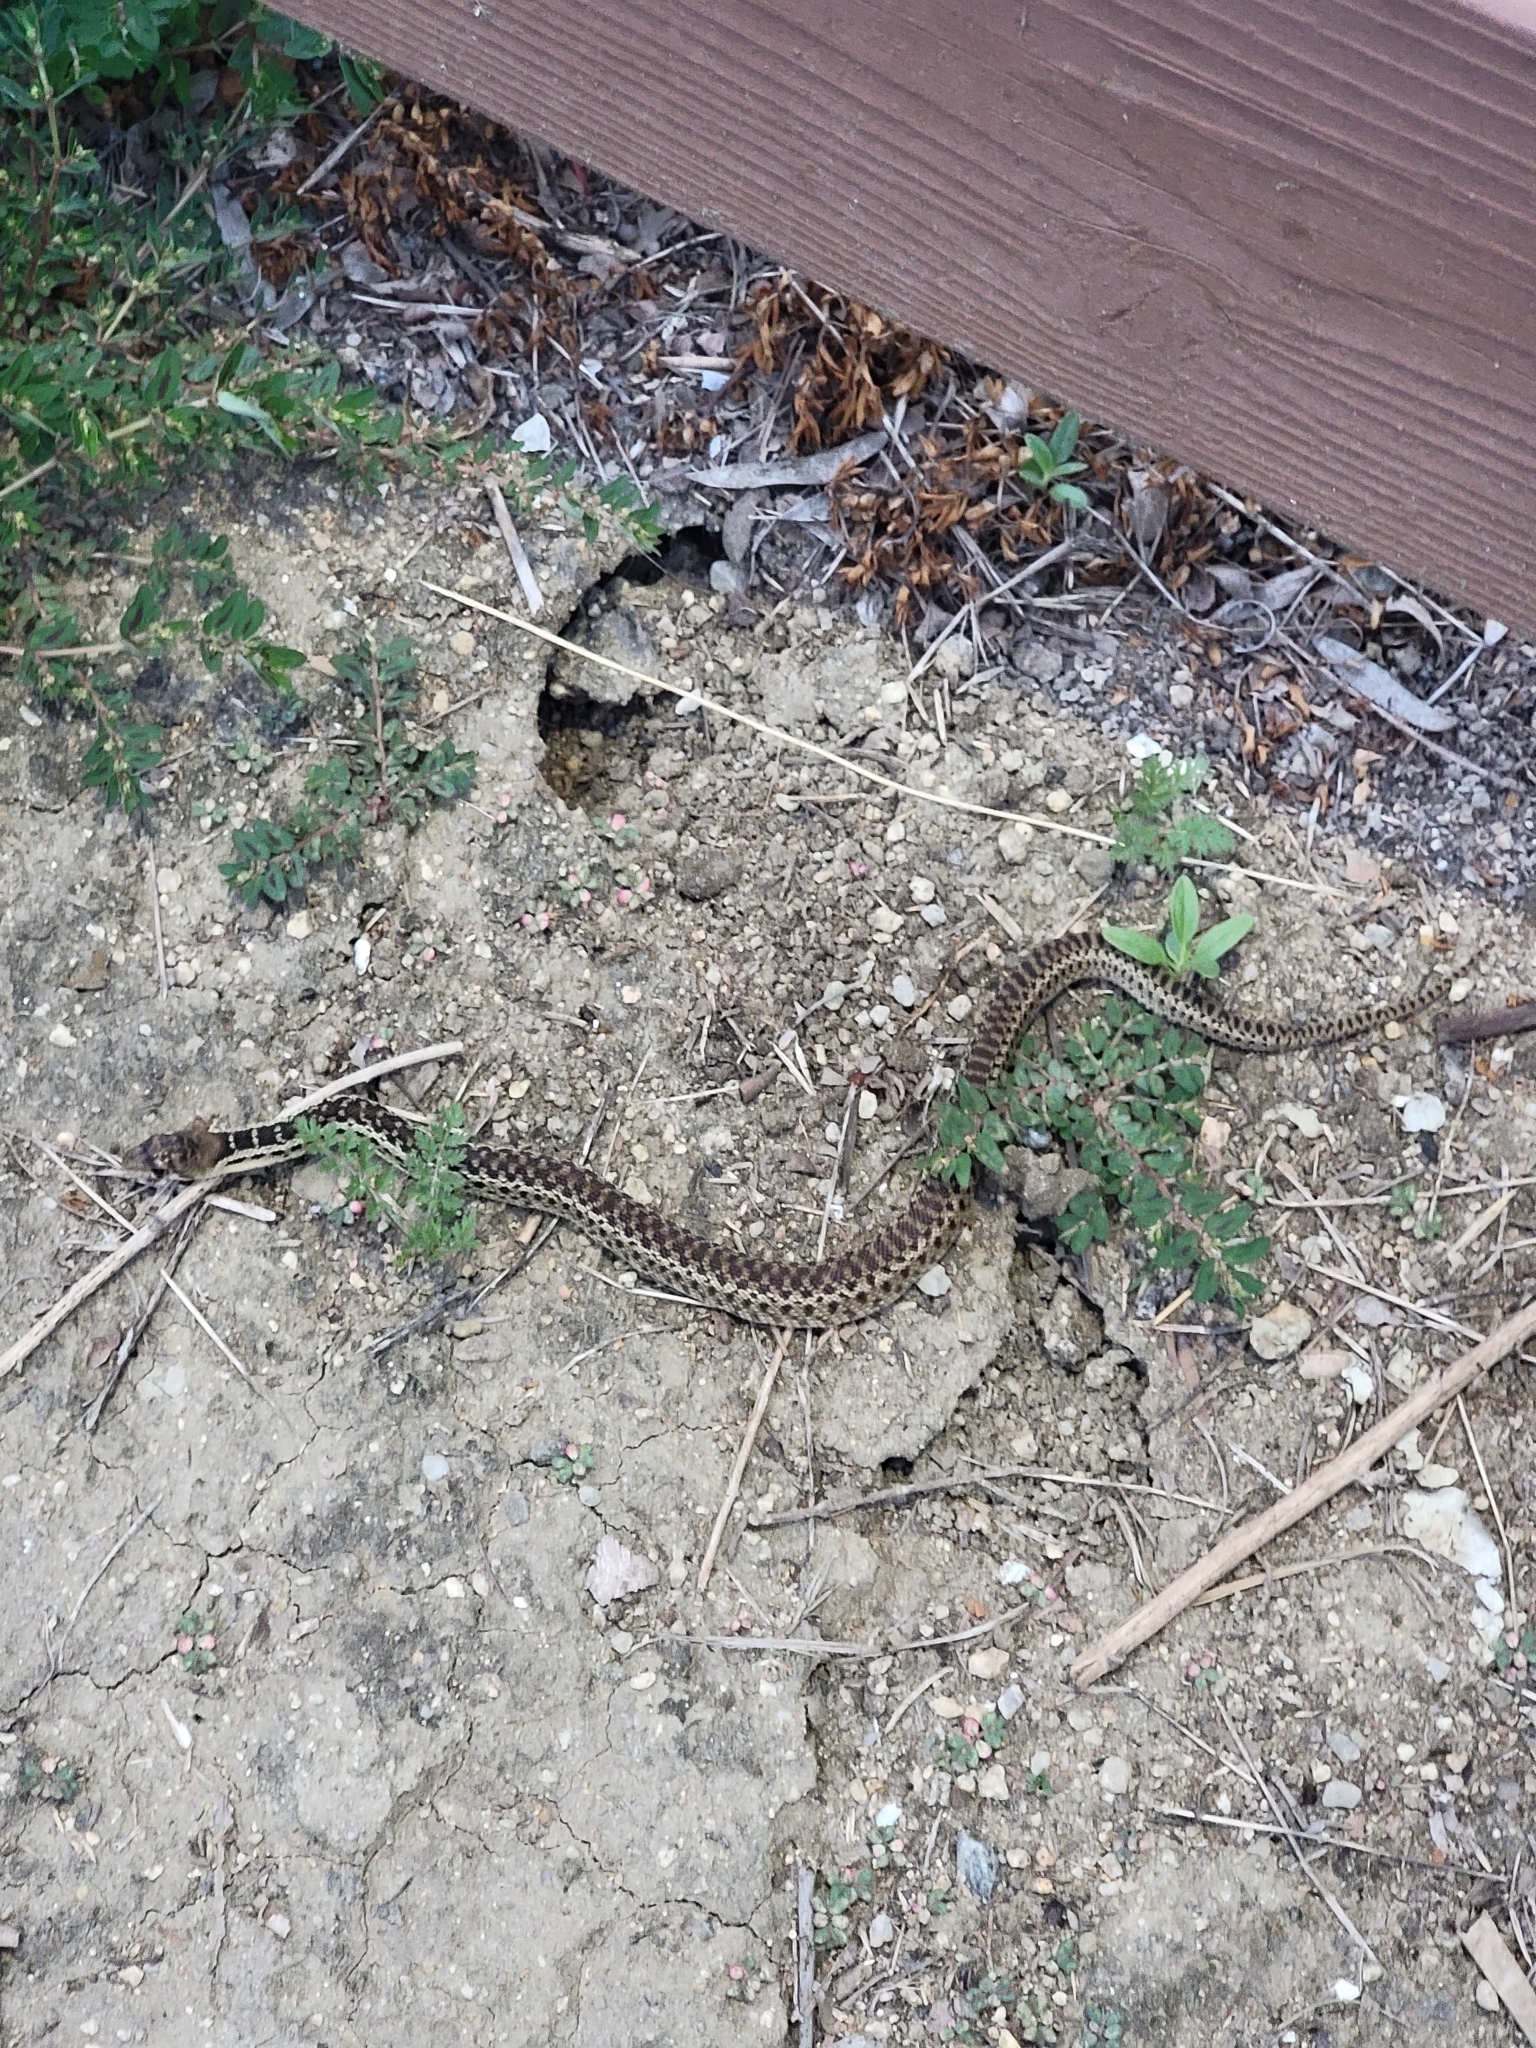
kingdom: Animalia
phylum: Chordata
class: Squamata
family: Colubridae
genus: Pituophis
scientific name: Pituophis catenifer
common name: Gopher snake
